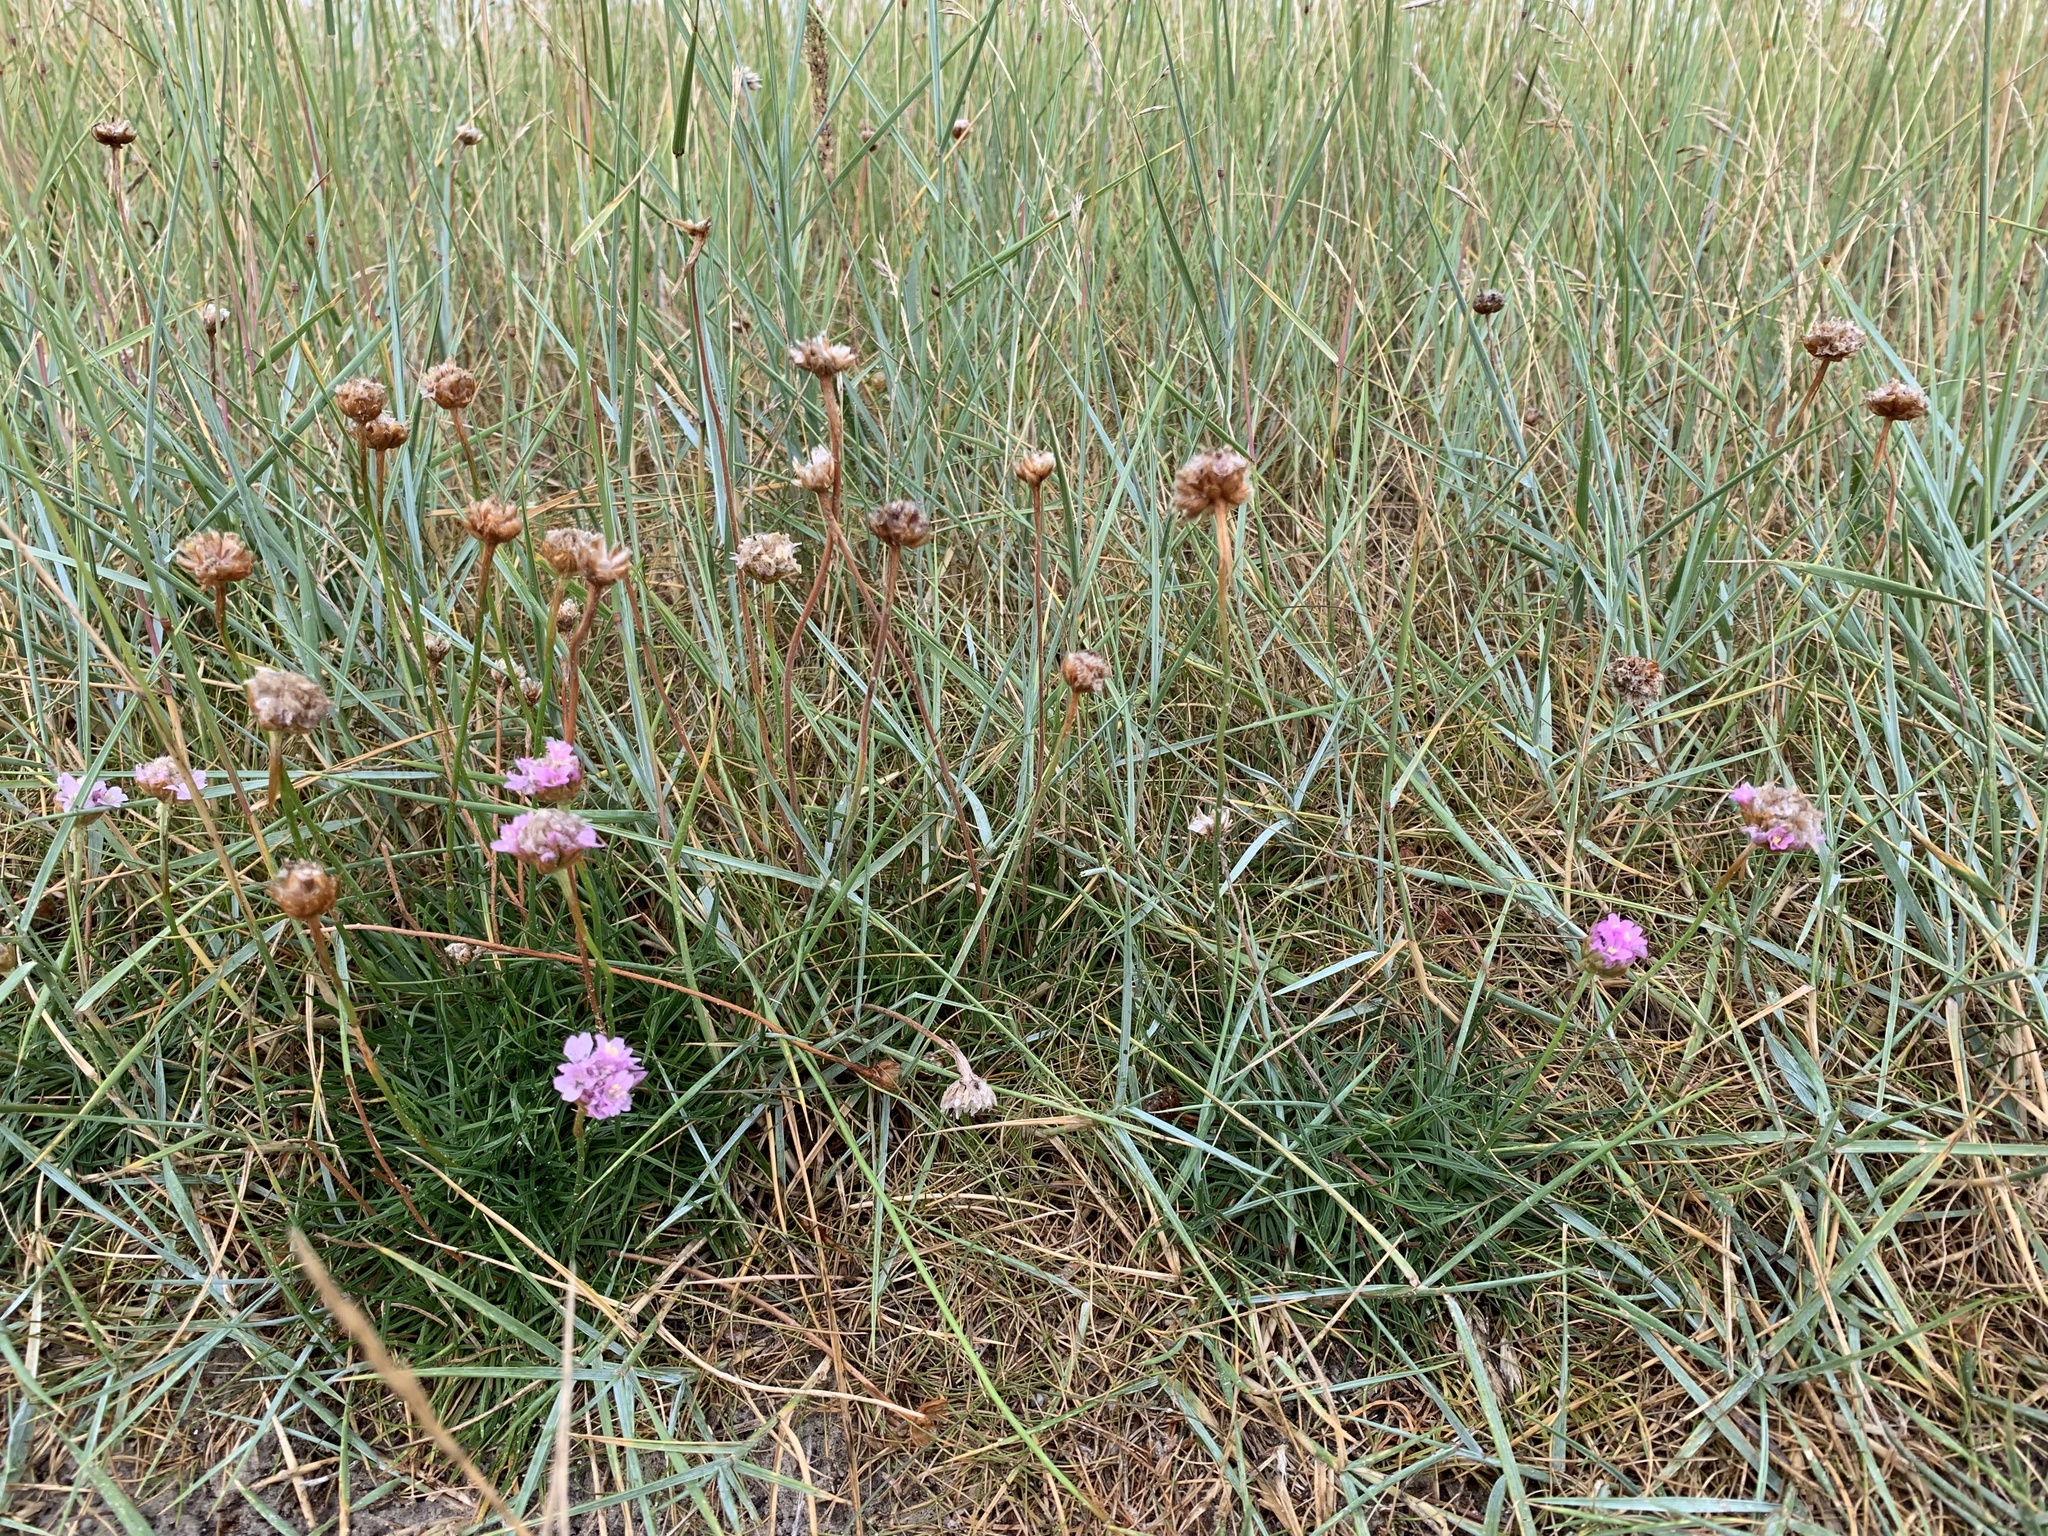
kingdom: Plantae
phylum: Tracheophyta
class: Magnoliopsida
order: Caryophyllales
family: Plumbaginaceae
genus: Armeria
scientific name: Armeria maritima
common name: Thrift
